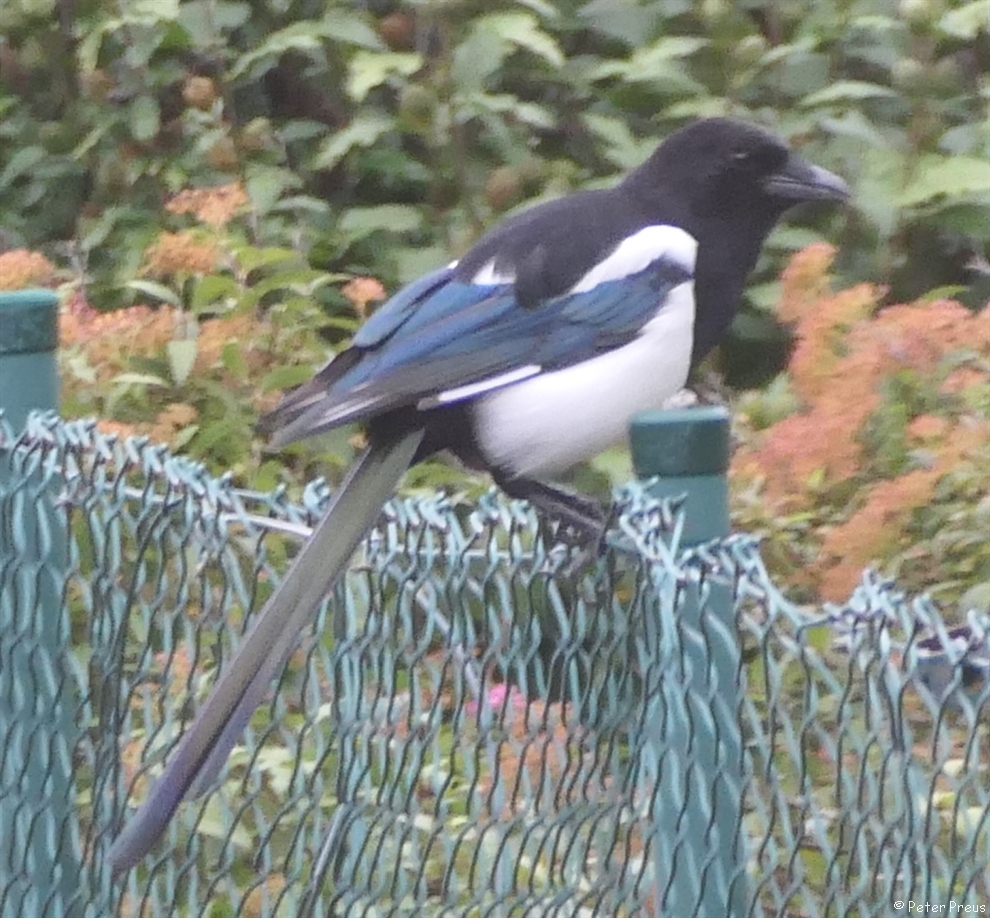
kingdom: Animalia
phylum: Chordata
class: Aves
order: Passeriformes
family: Corvidae
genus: Pica
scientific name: Pica pica
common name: Eurasian magpie
